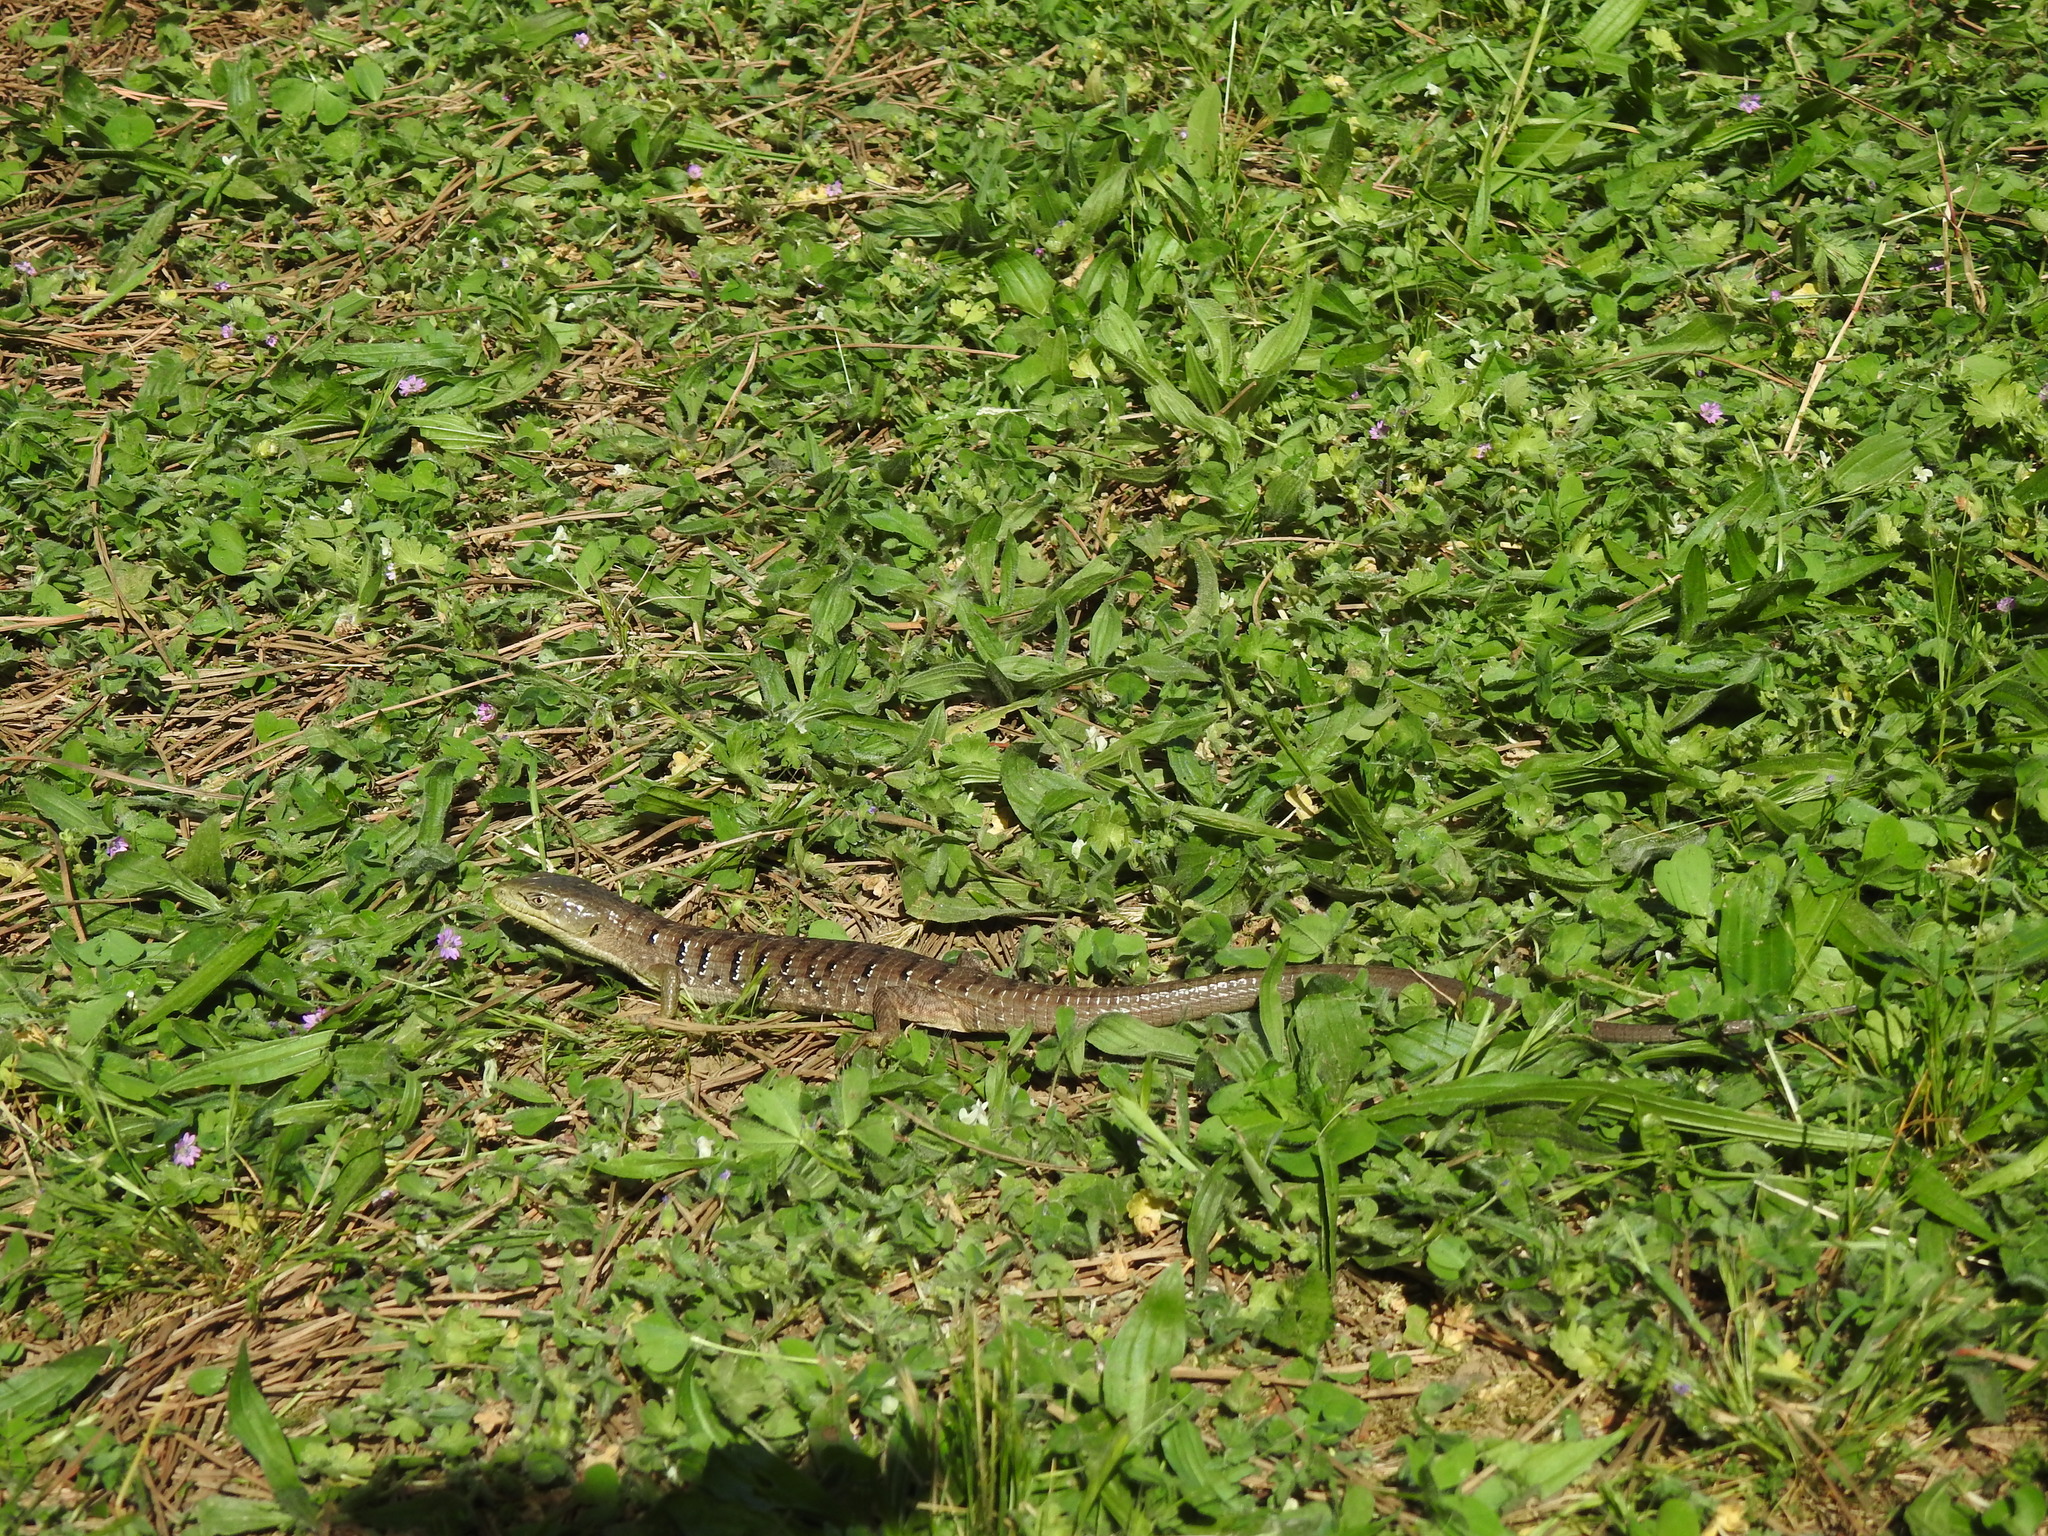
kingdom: Animalia
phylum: Chordata
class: Squamata
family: Anguidae
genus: Elgaria
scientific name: Elgaria multicarinata
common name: Southern alligator lizard
